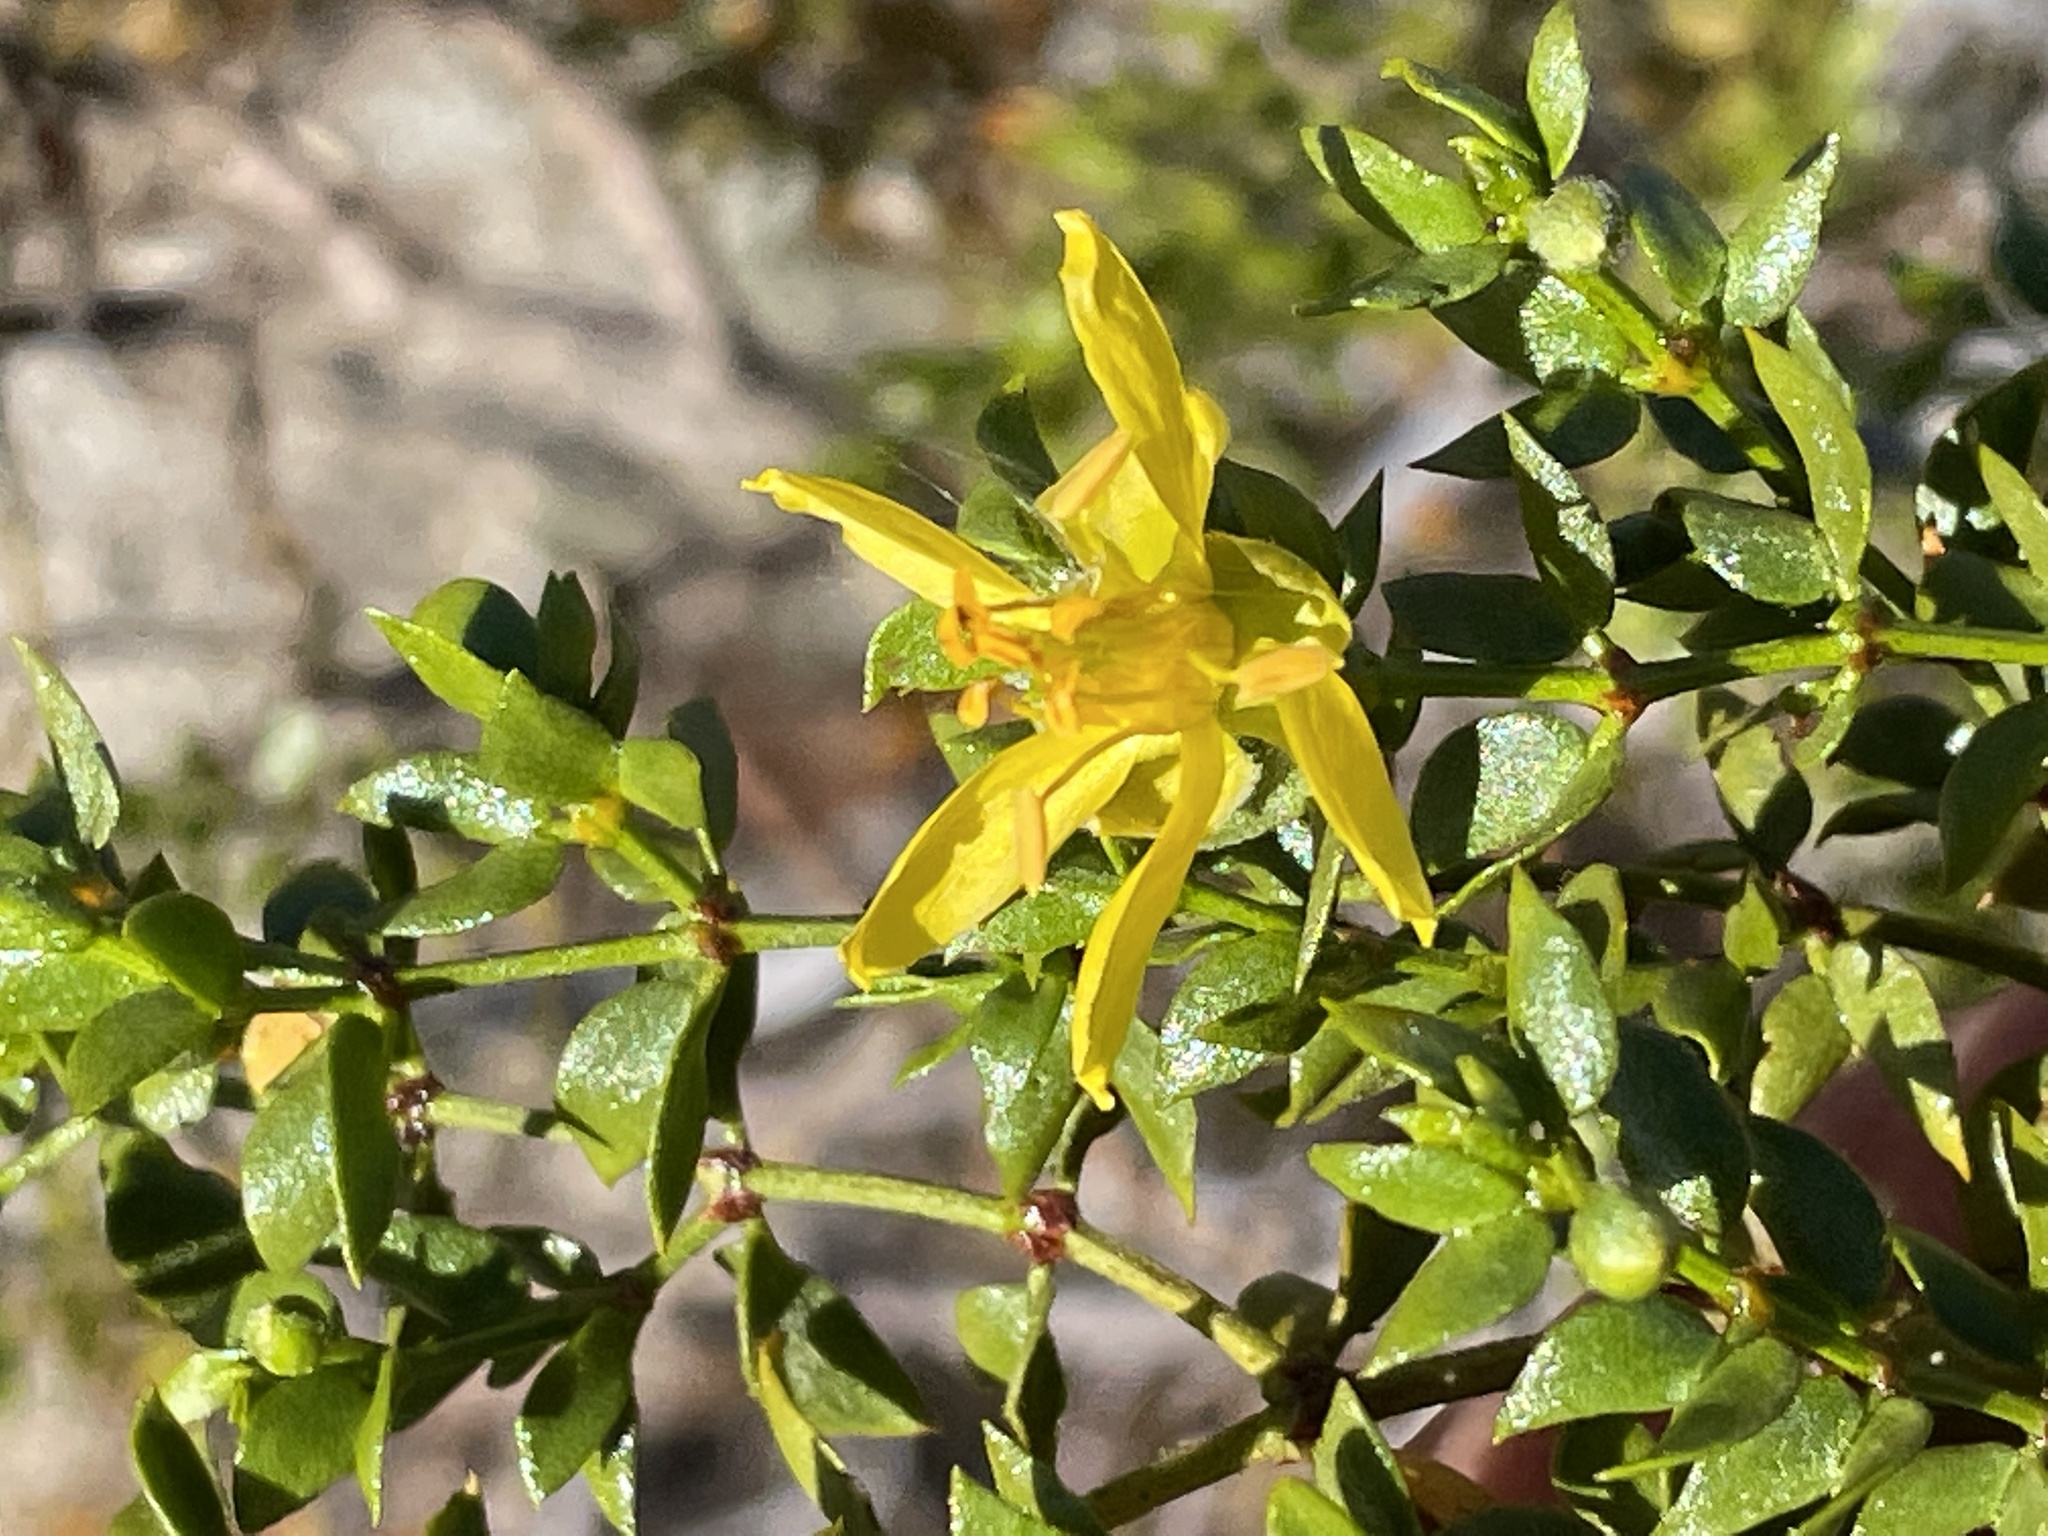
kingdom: Plantae
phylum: Tracheophyta
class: Magnoliopsida
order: Zygophyllales
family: Zygophyllaceae
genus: Larrea
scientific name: Larrea tridentata
